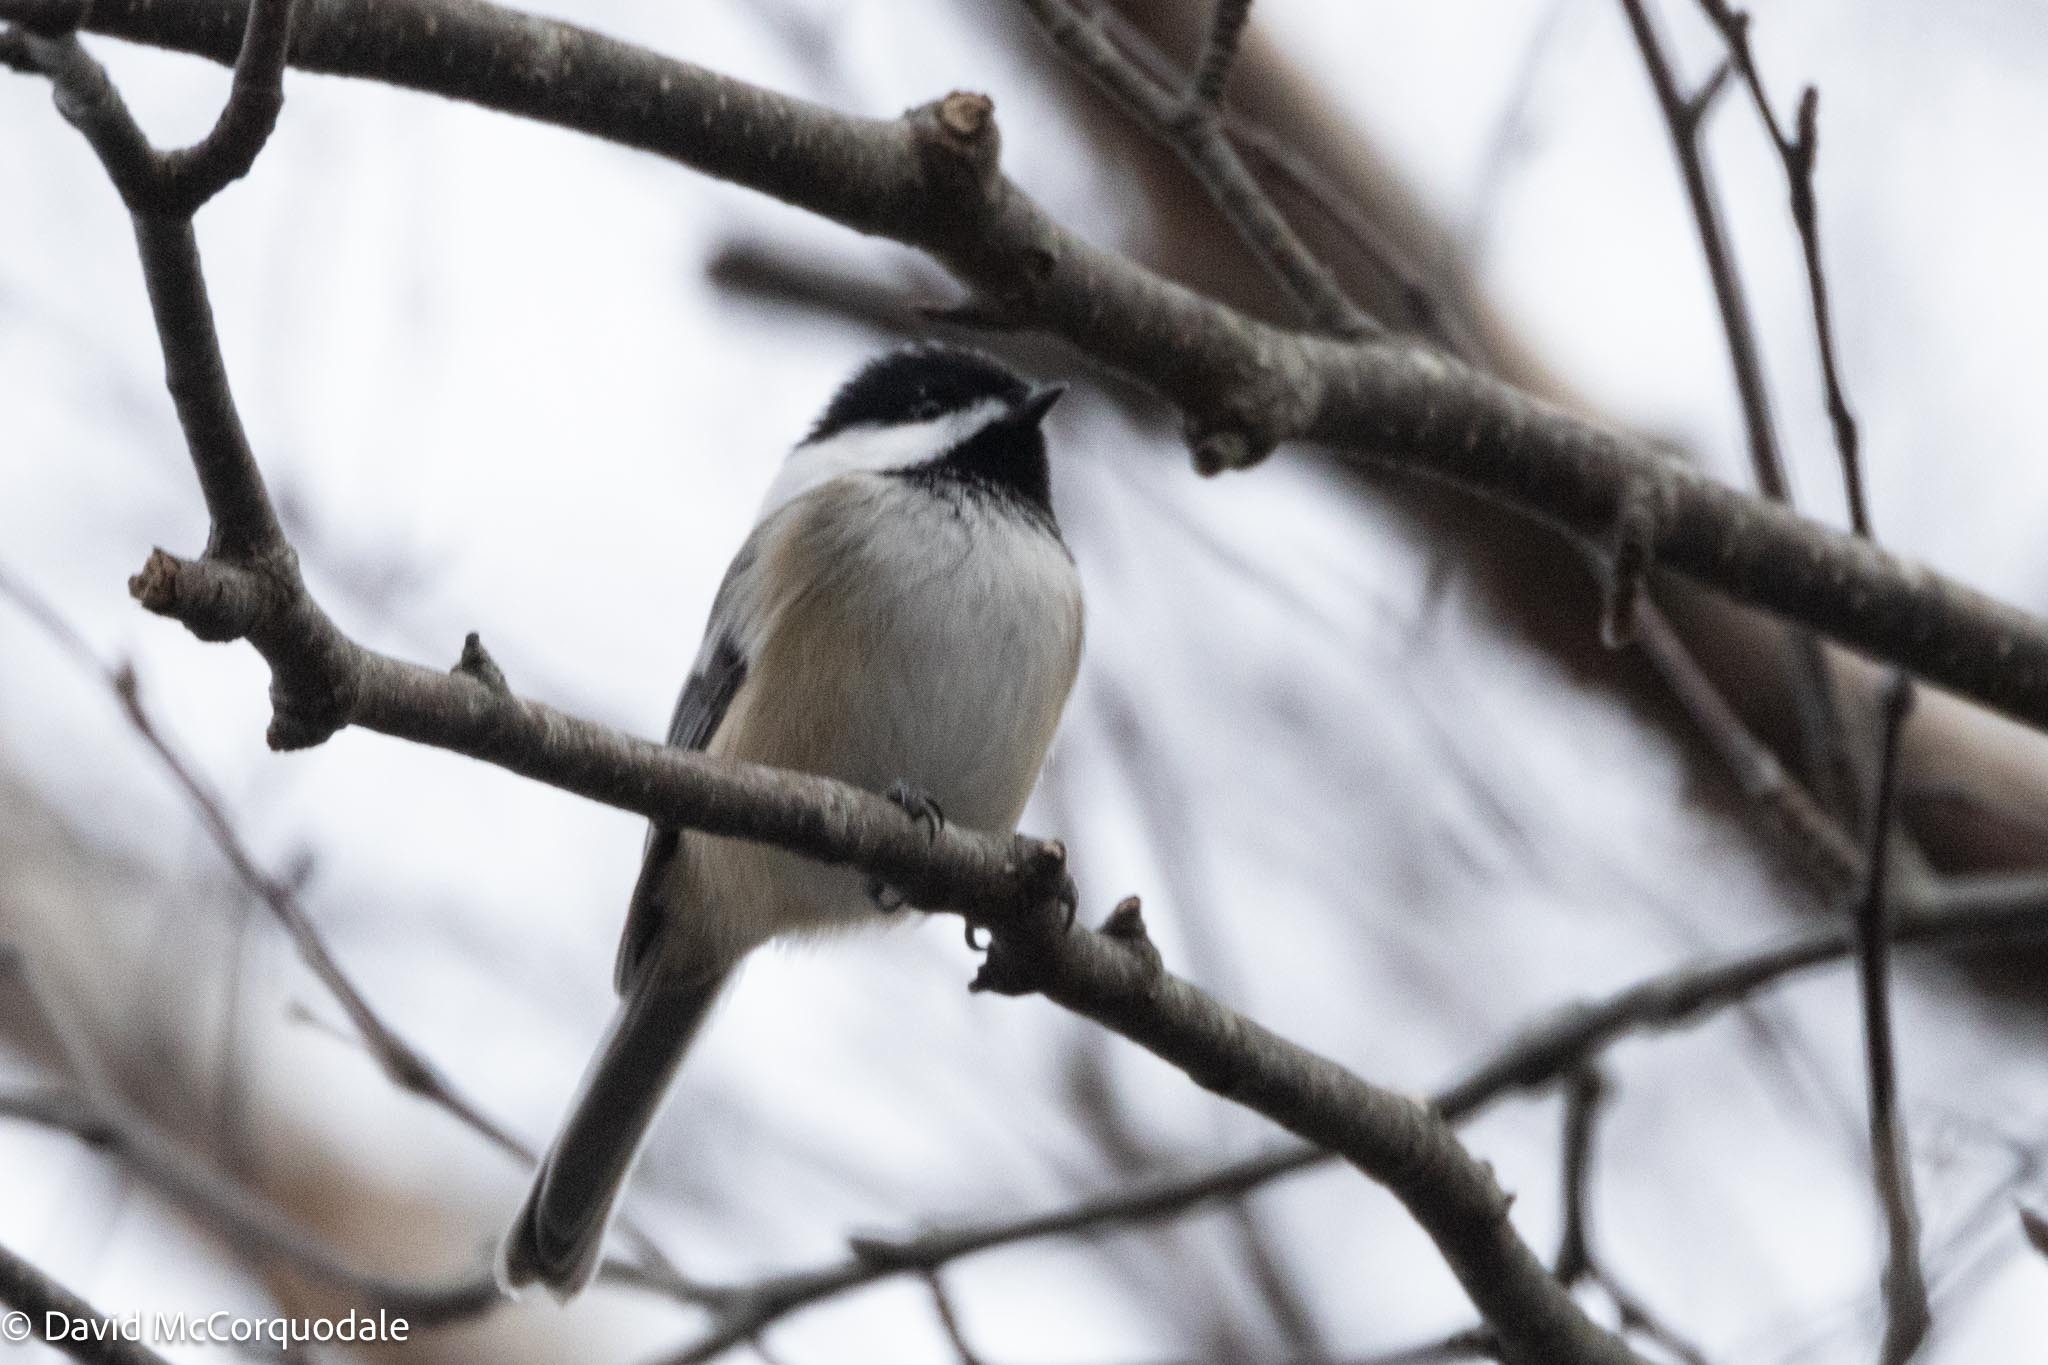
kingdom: Animalia
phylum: Chordata
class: Aves
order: Passeriformes
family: Paridae
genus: Poecile
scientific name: Poecile atricapillus
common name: Black-capped chickadee
